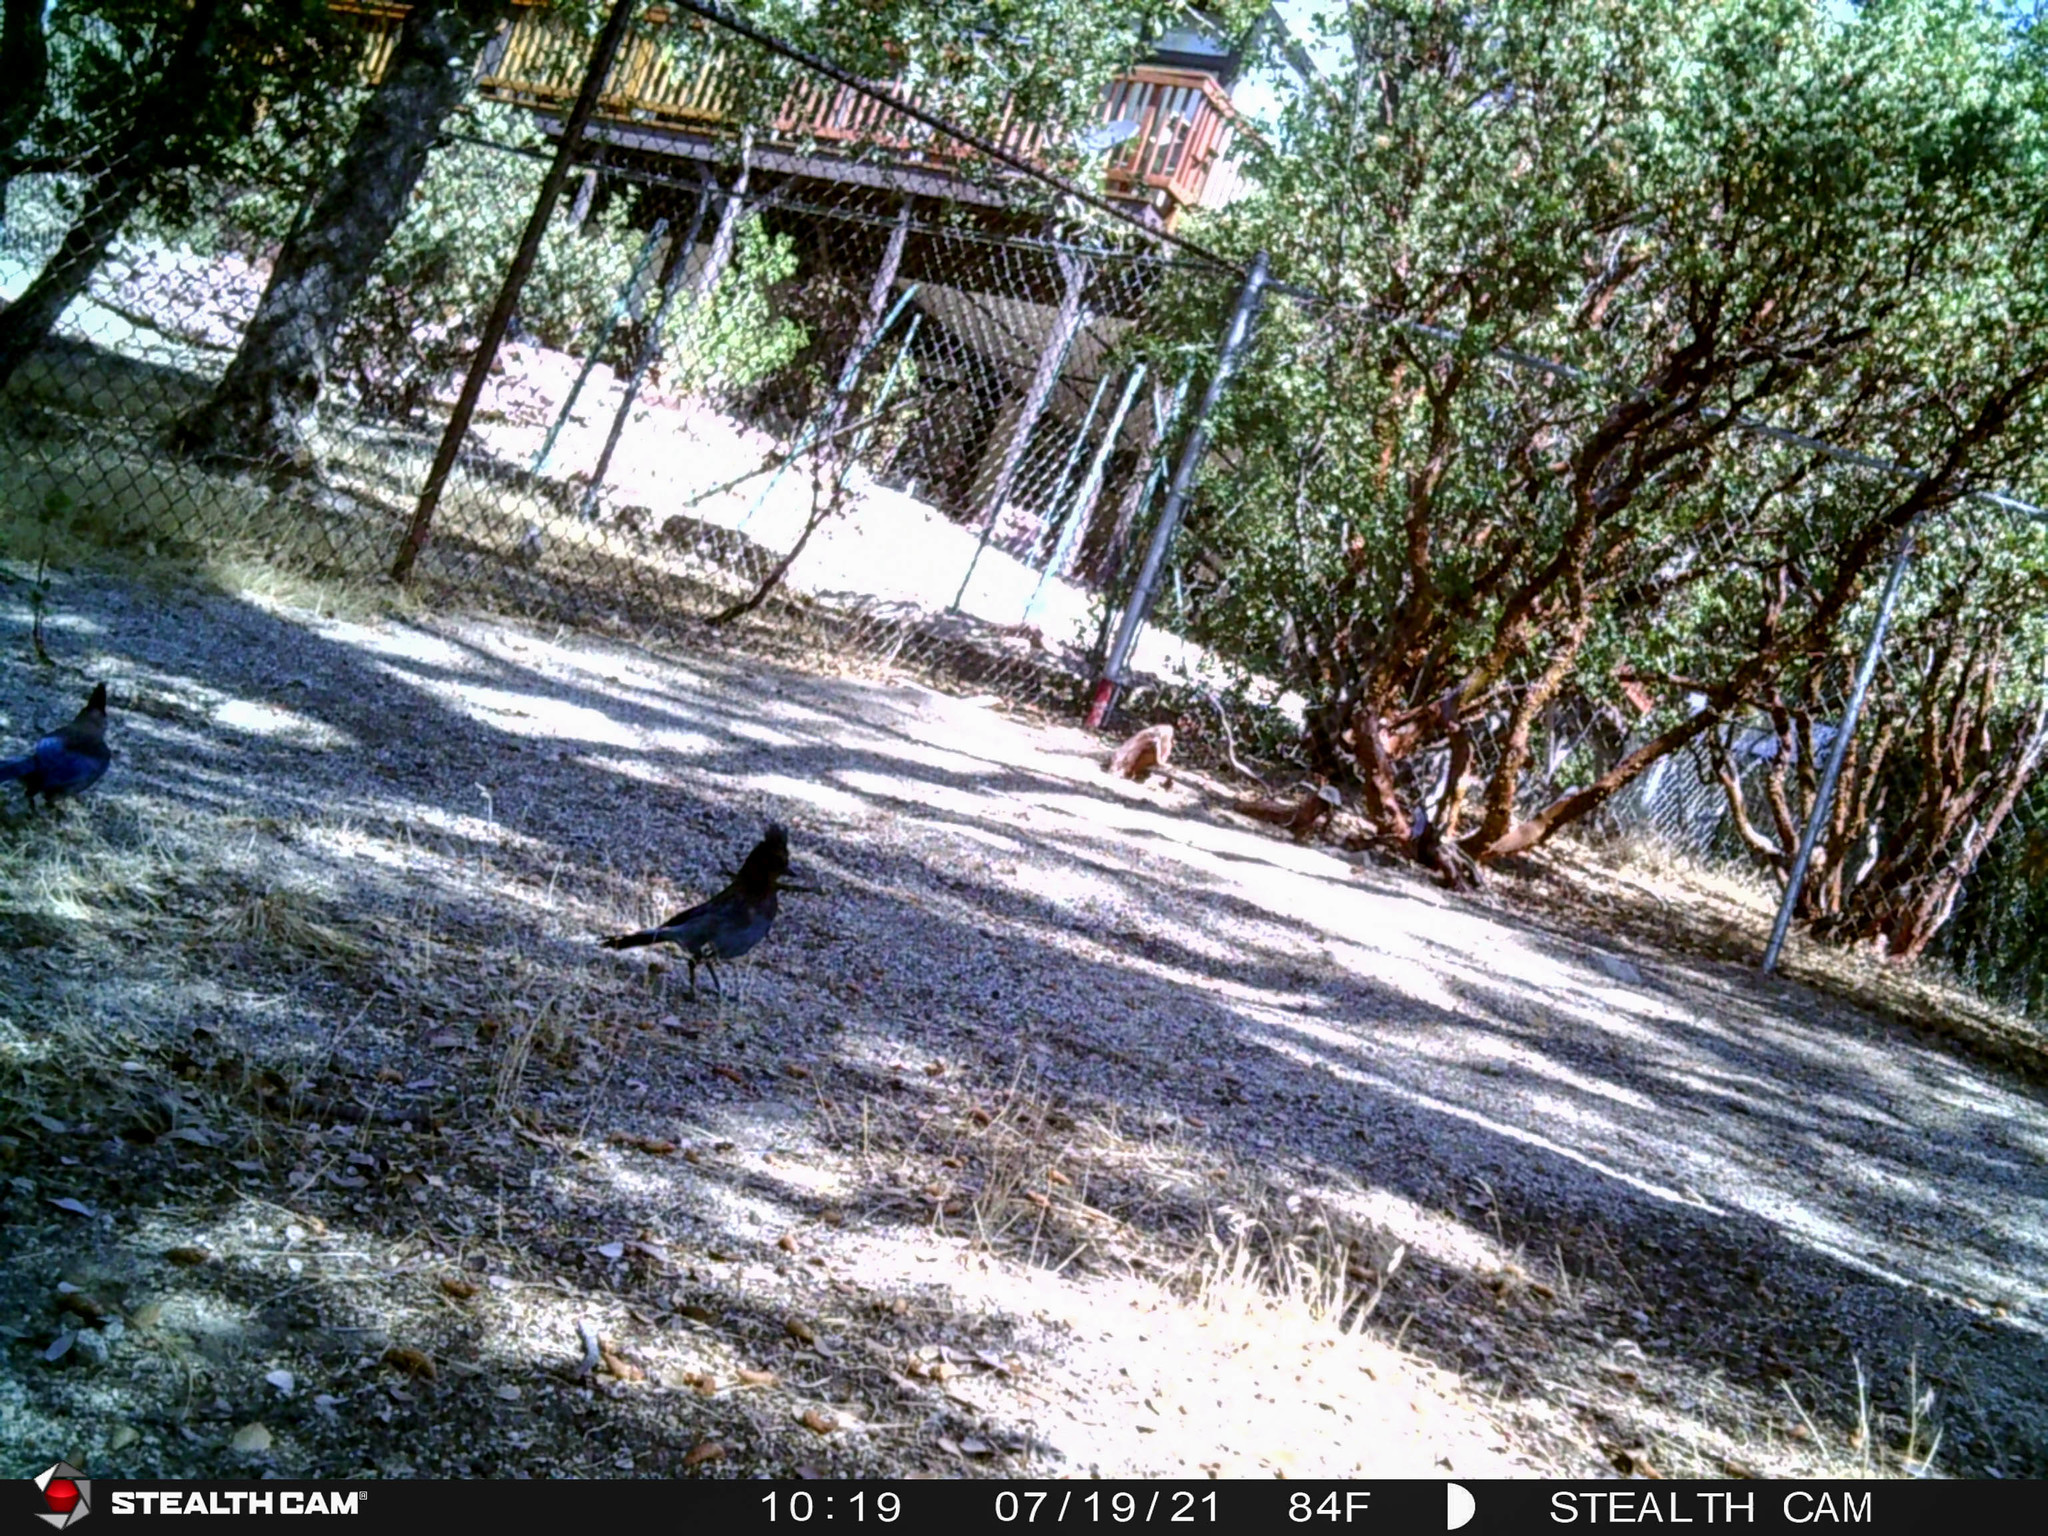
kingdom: Animalia
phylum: Chordata
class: Aves
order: Passeriformes
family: Corvidae
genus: Cyanocitta
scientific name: Cyanocitta stelleri
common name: Steller's jay
